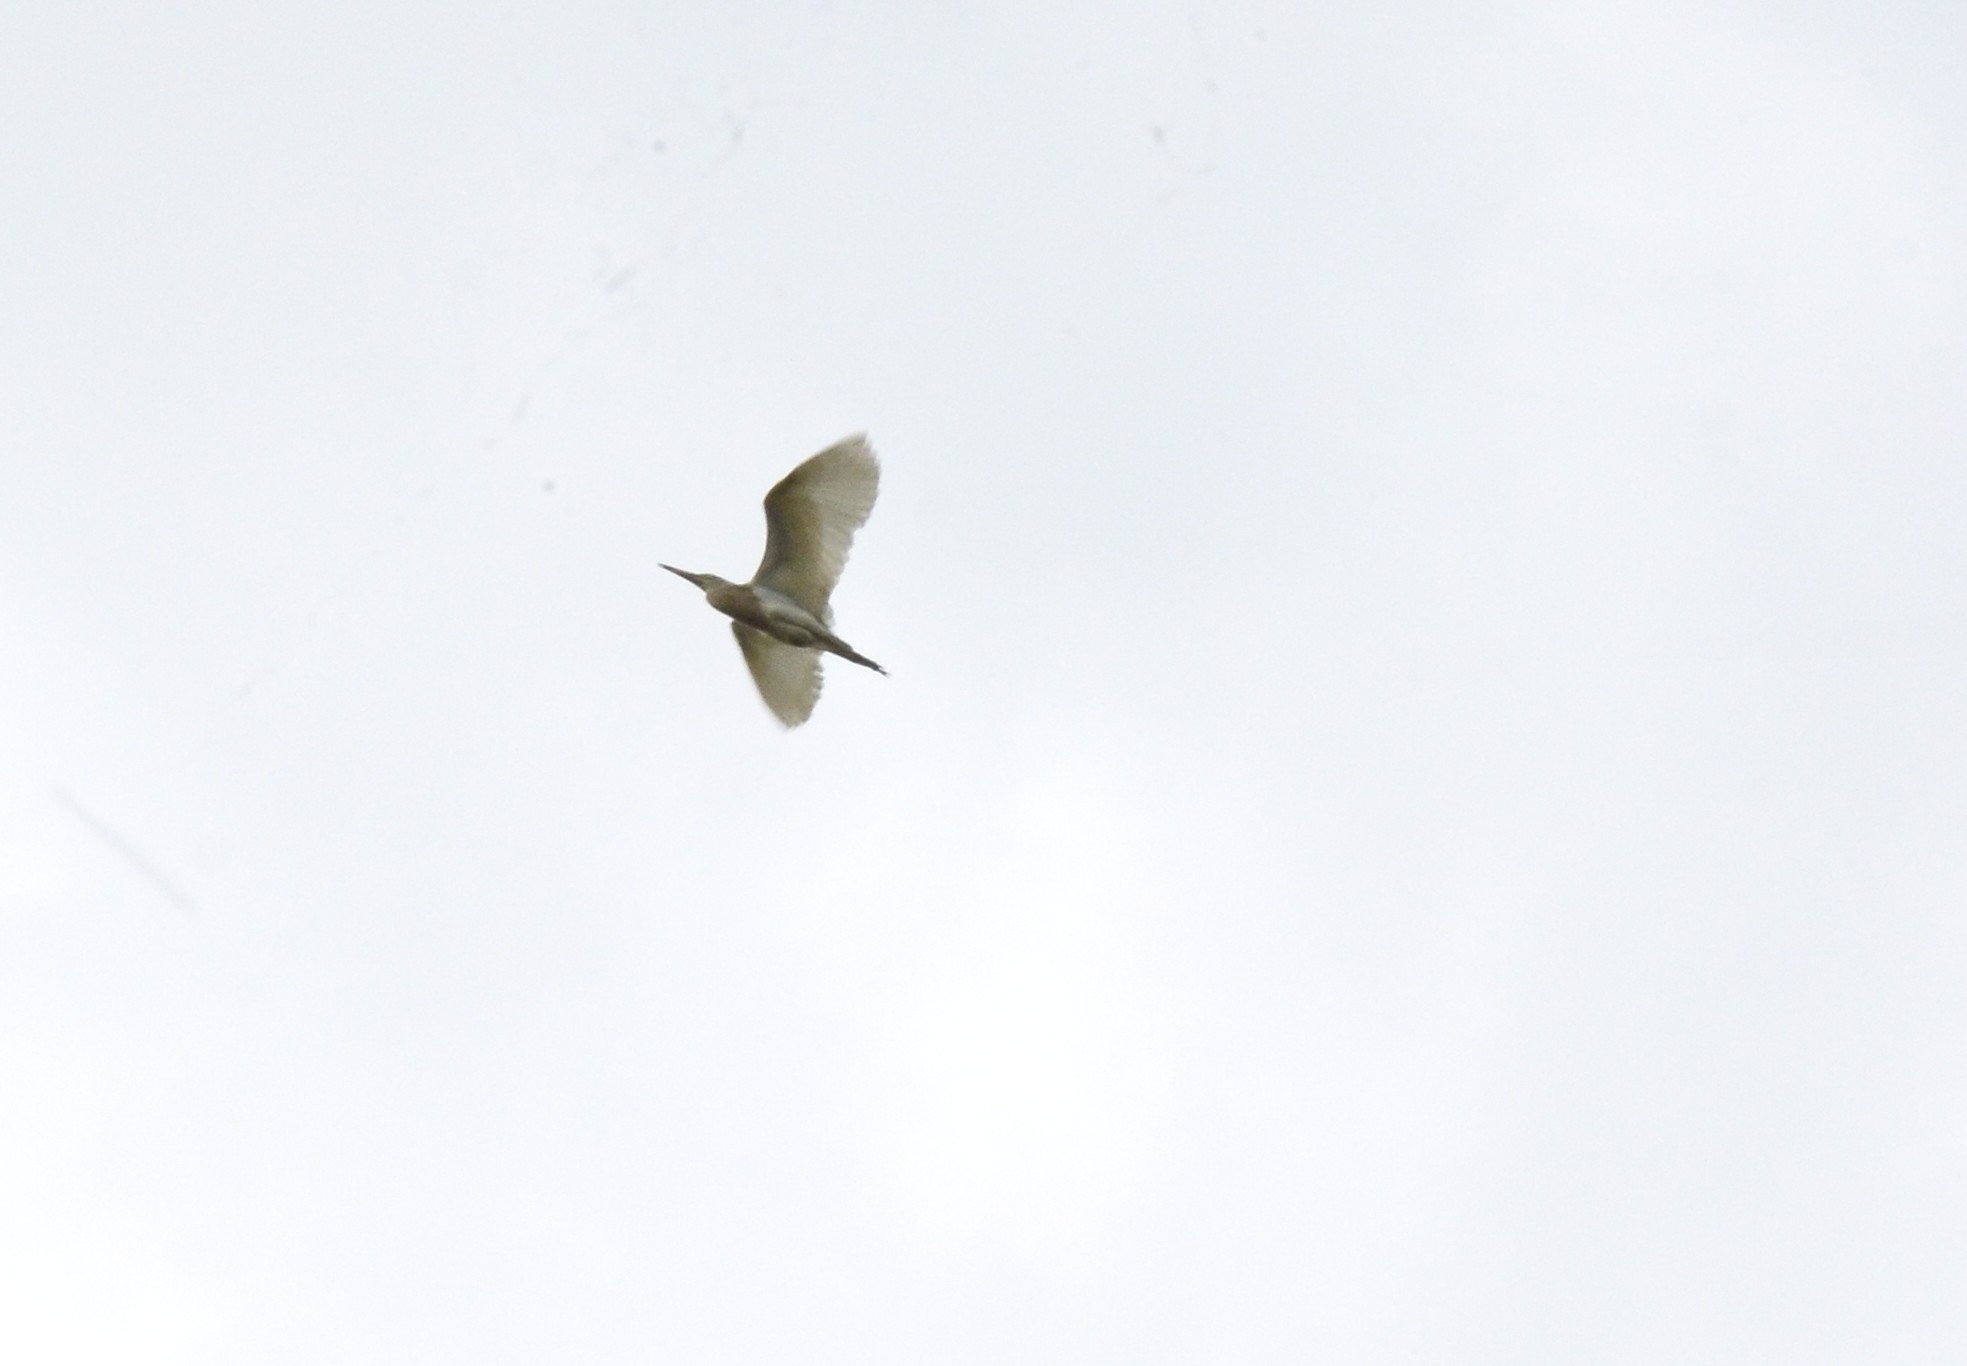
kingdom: Animalia
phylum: Chordata
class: Aves
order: Pelecaniformes
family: Ardeidae
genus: Ardeola
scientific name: Ardeola grayii
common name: Indian pond heron
